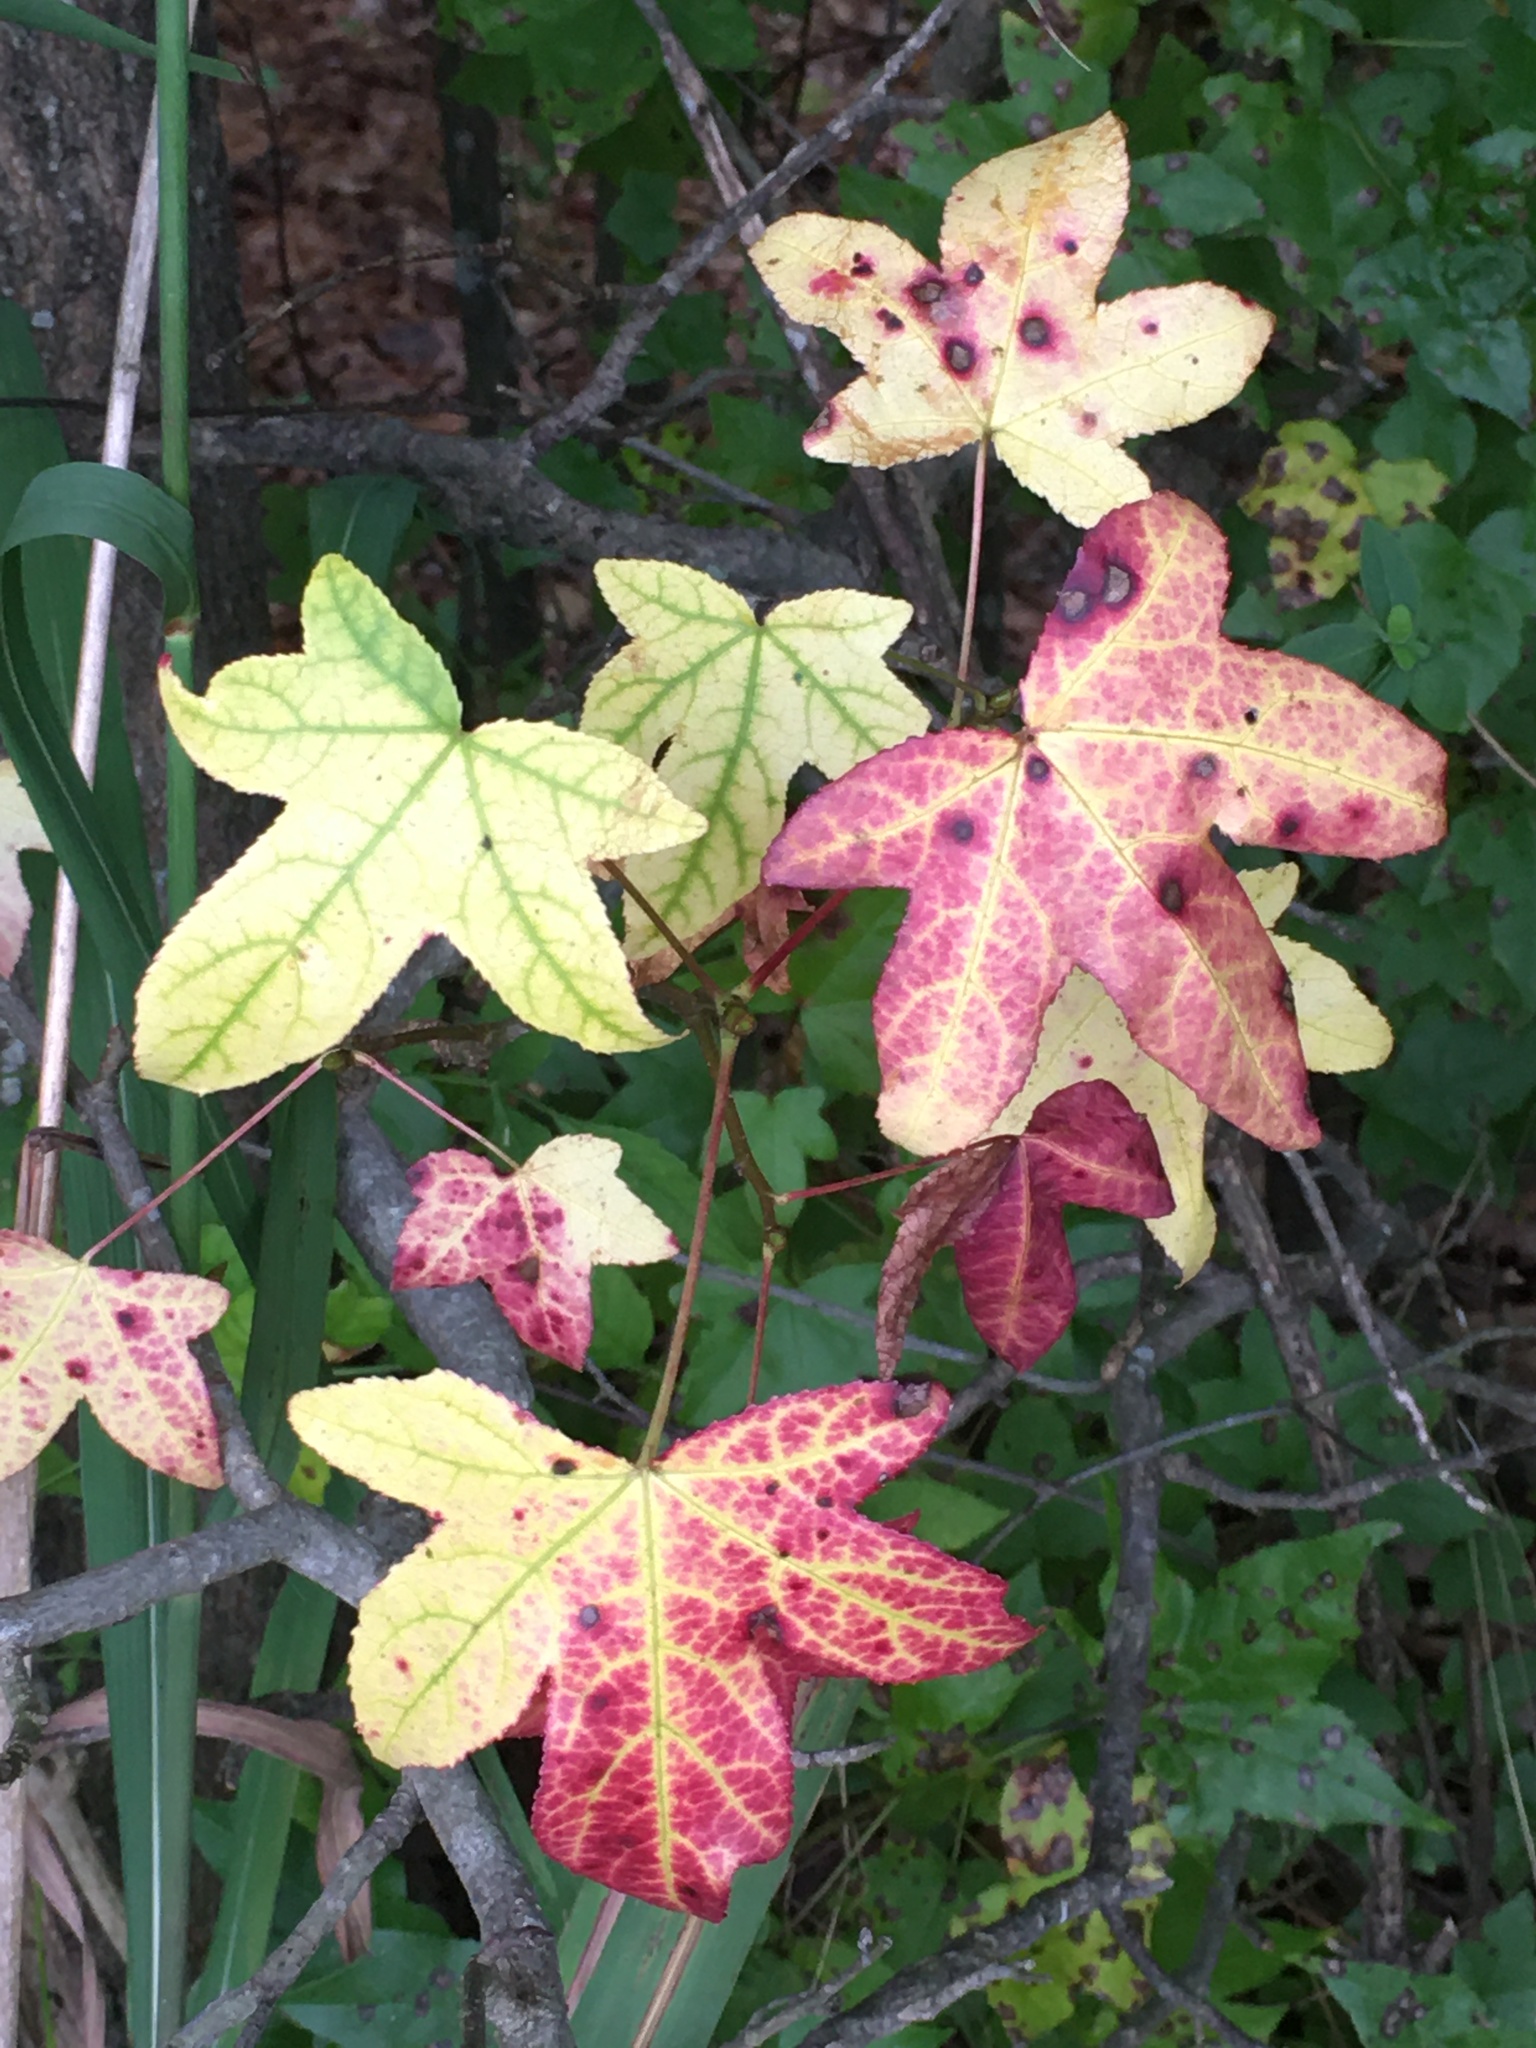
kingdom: Plantae
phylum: Tracheophyta
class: Magnoliopsida
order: Saxifragales
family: Altingiaceae
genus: Liquidambar
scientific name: Liquidambar styraciflua
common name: Sweet gum
